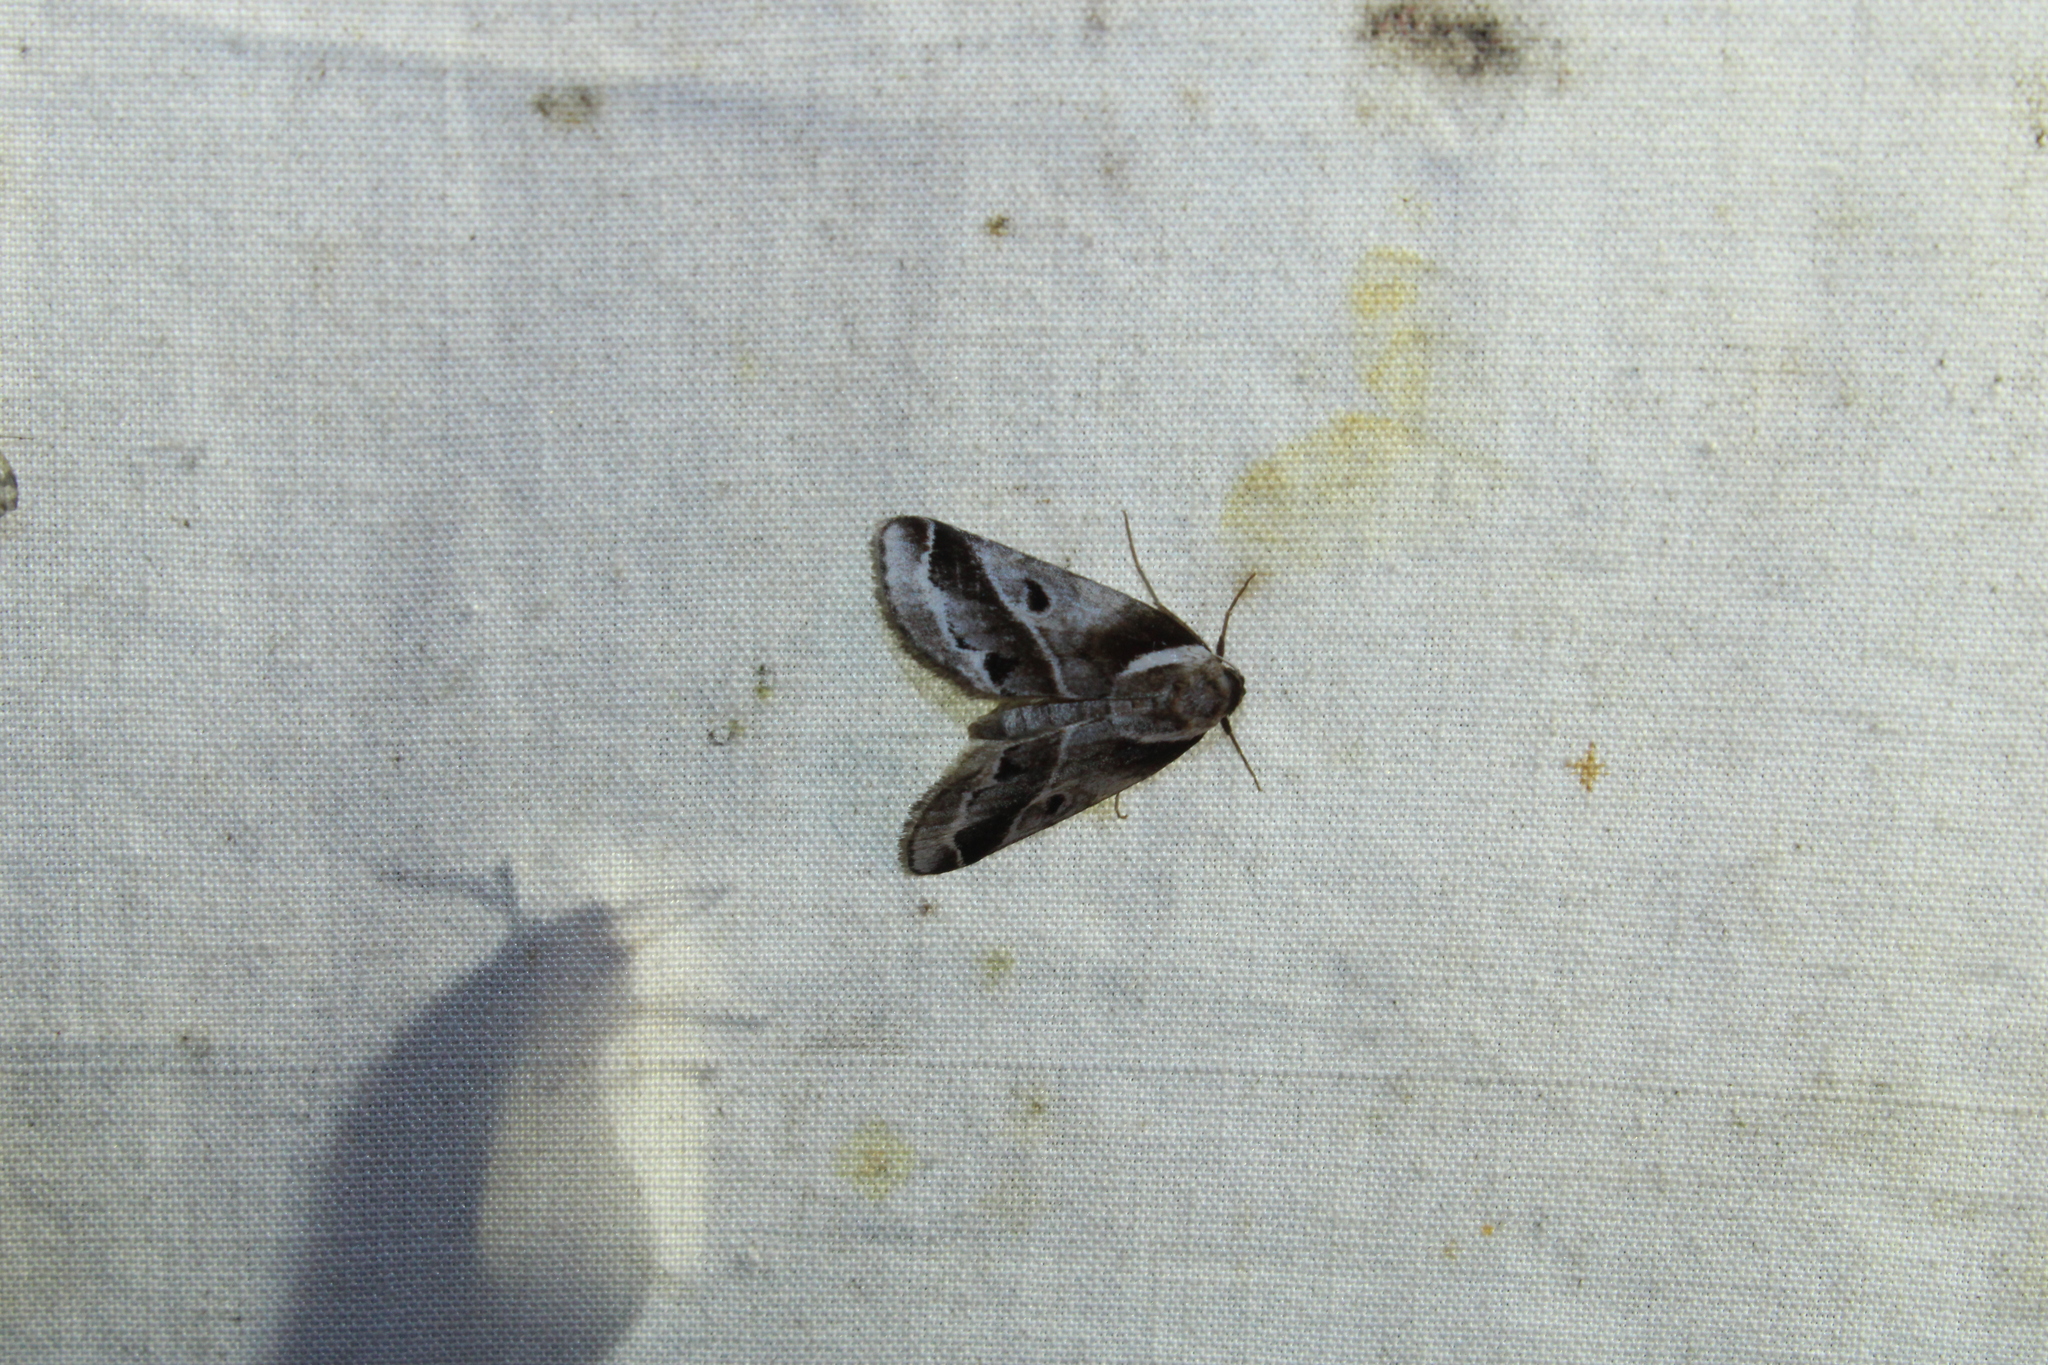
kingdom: Animalia
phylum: Arthropoda
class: Insecta
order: Lepidoptera
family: Nolidae
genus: Baileya
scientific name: Baileya doubledayi
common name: Doubleday's baileya moth
